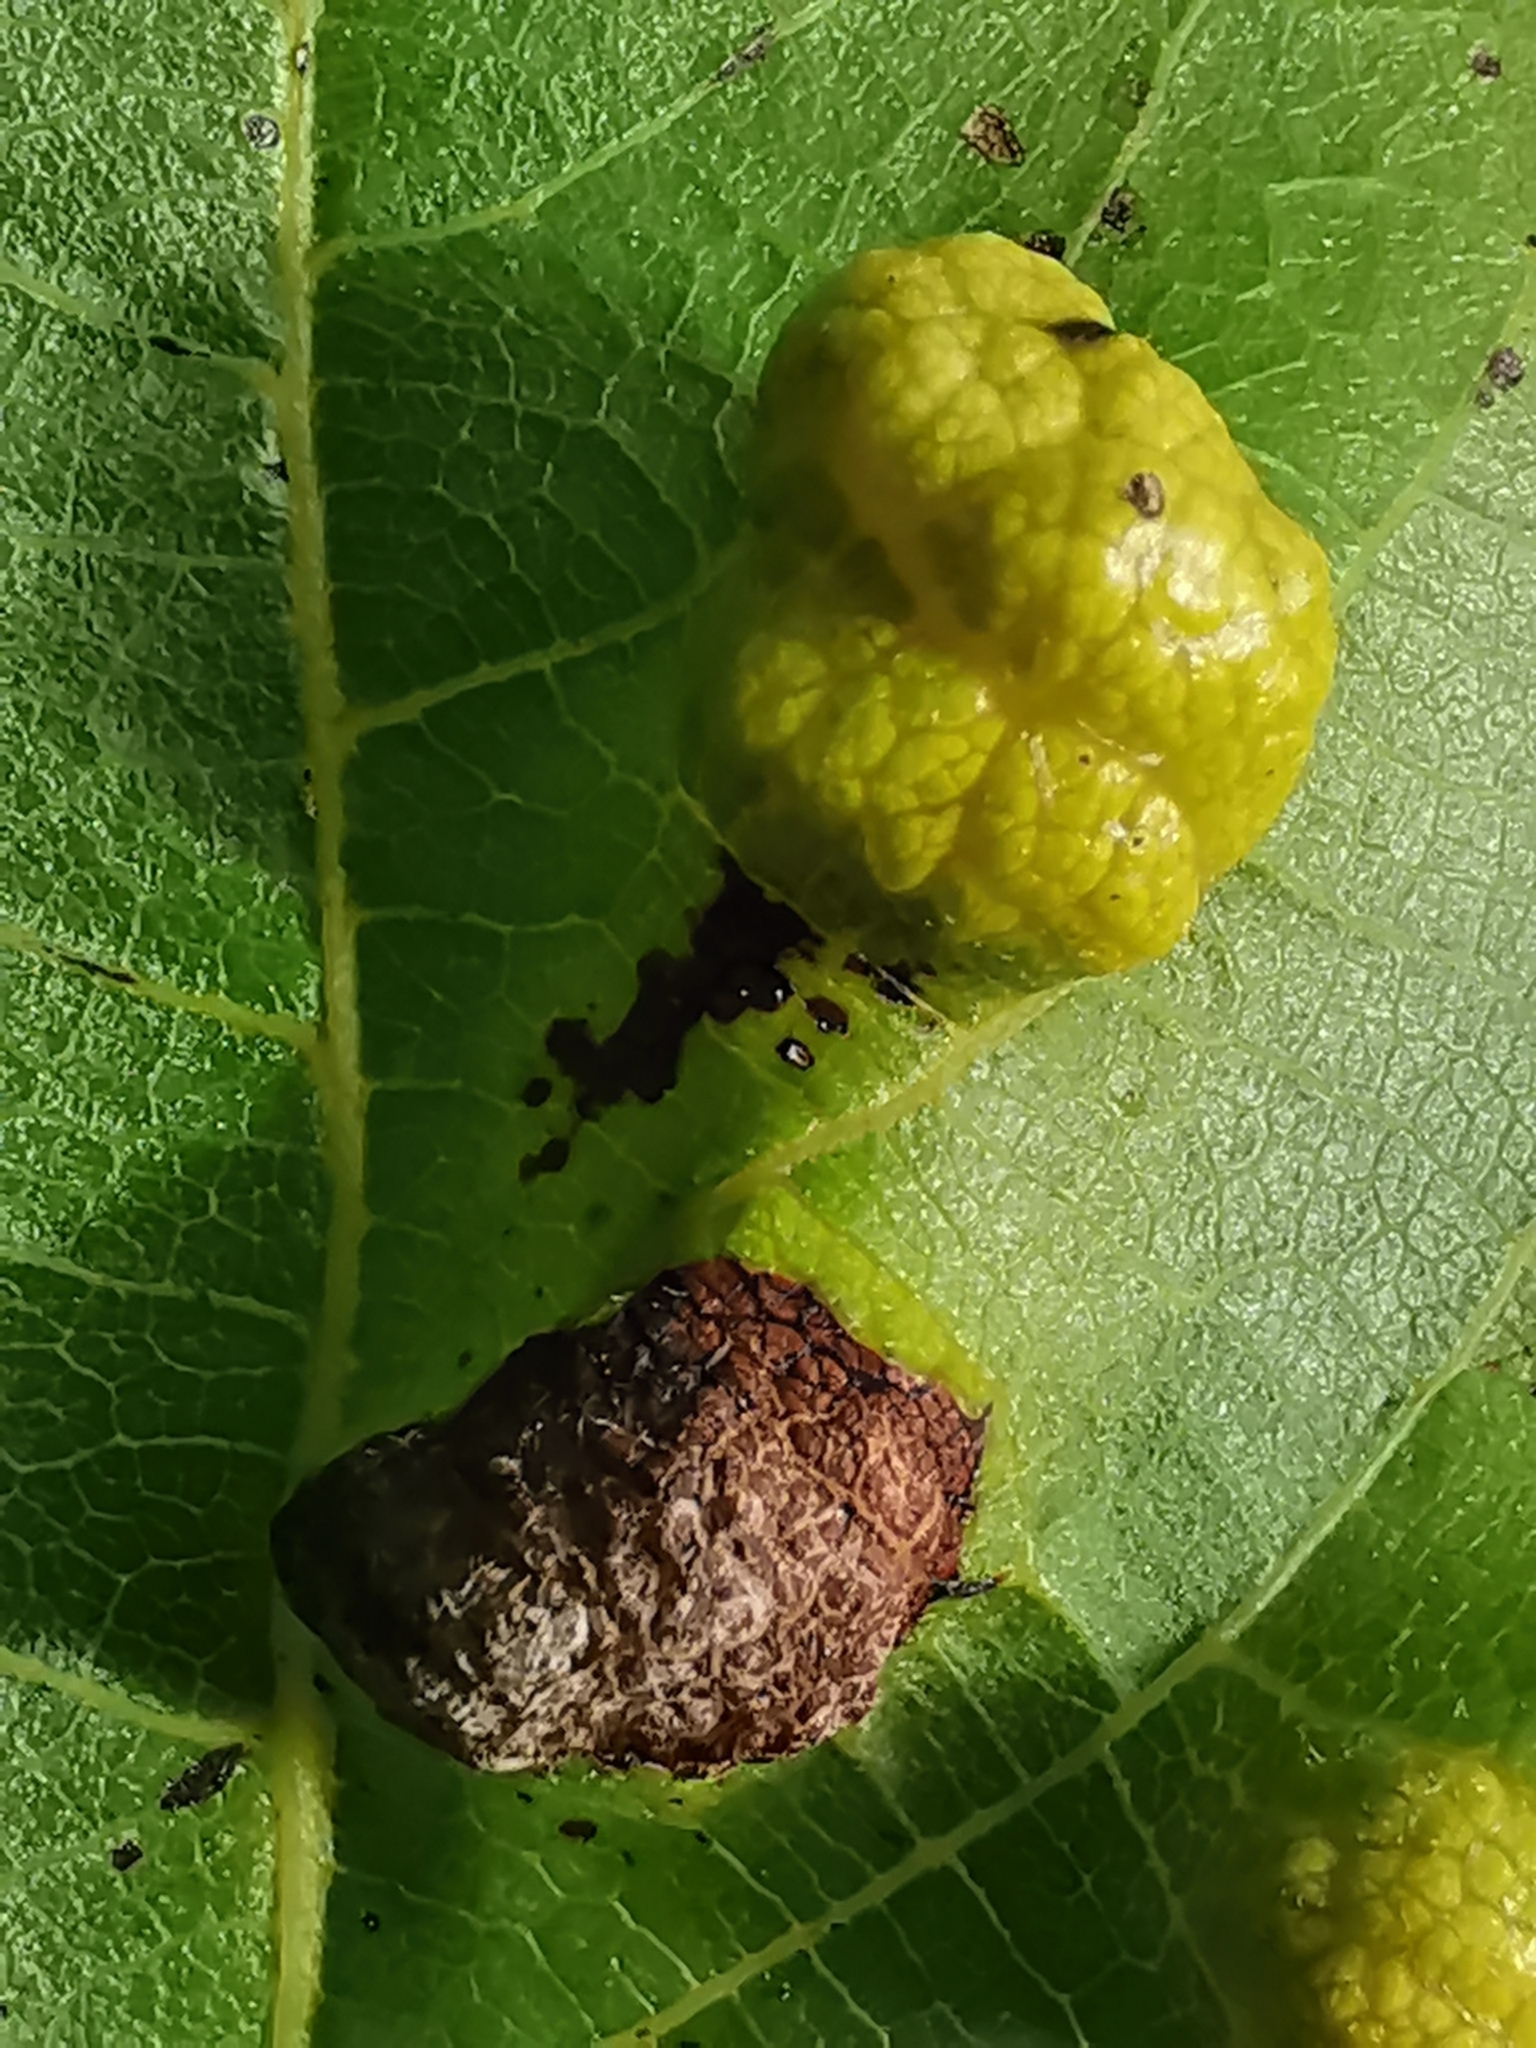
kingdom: Animalia
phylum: Arthropoda
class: Arachnida
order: Trombidiformes
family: Eriophyidae
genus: Aceria
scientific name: Aceria erinea
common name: Persian walnut erineum mite
